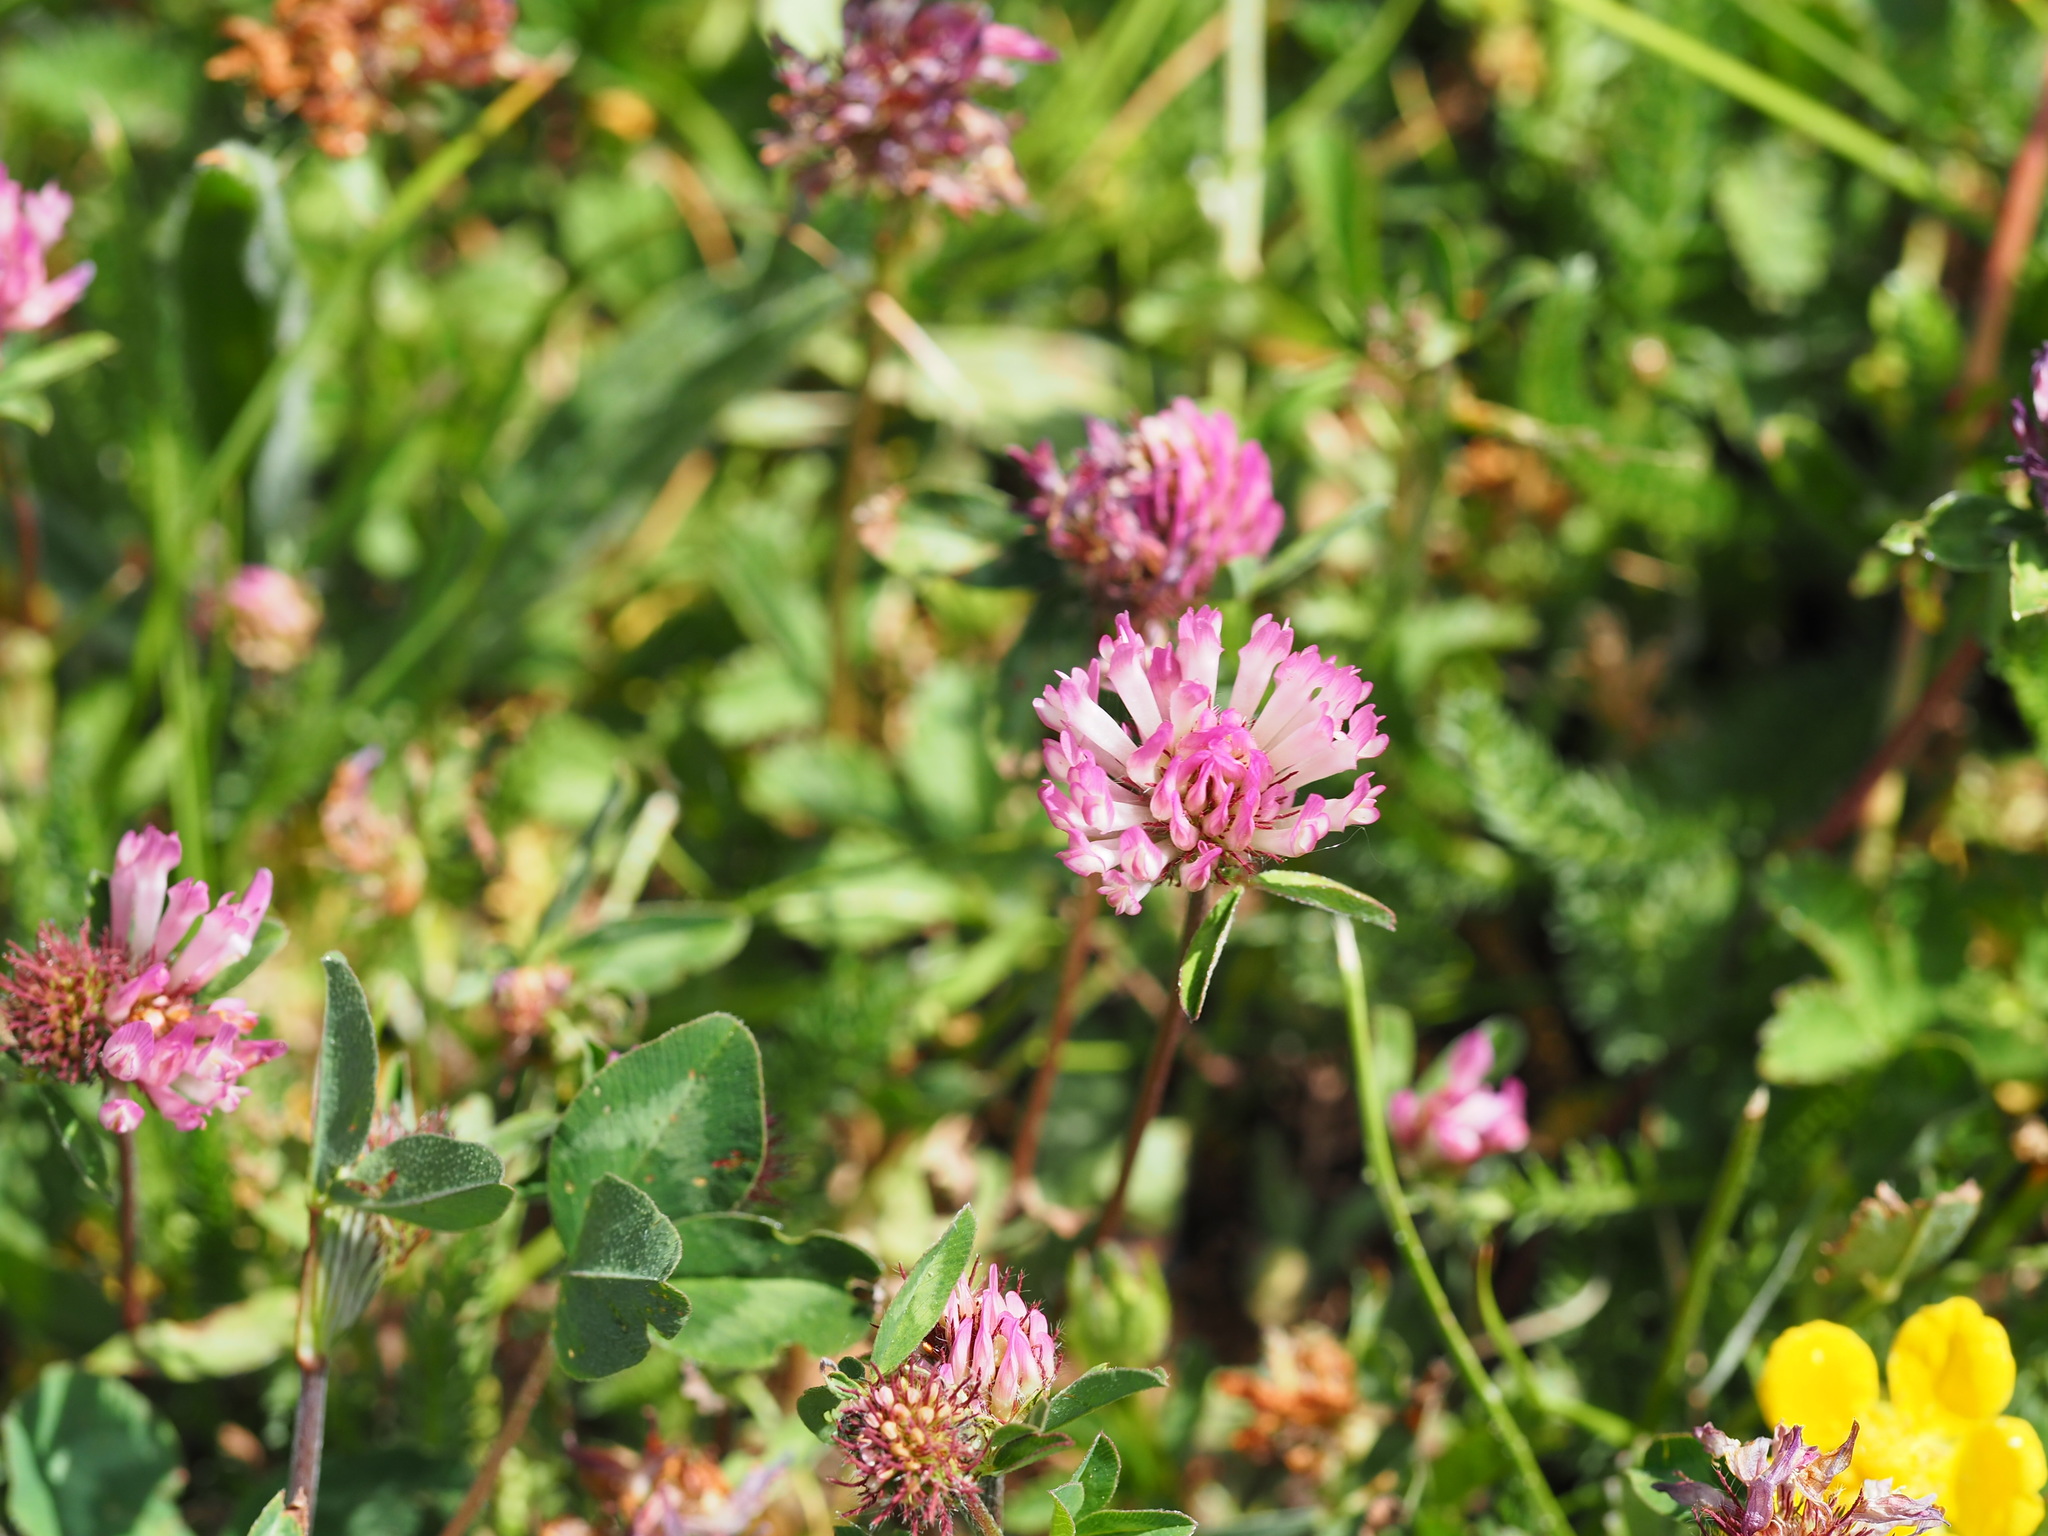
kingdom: Plantae
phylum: Tracheophyta
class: Magnoliopsida
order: Fabales
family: Fabaceae
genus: Trifolium
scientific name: Trifolium pratense
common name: Red clover
